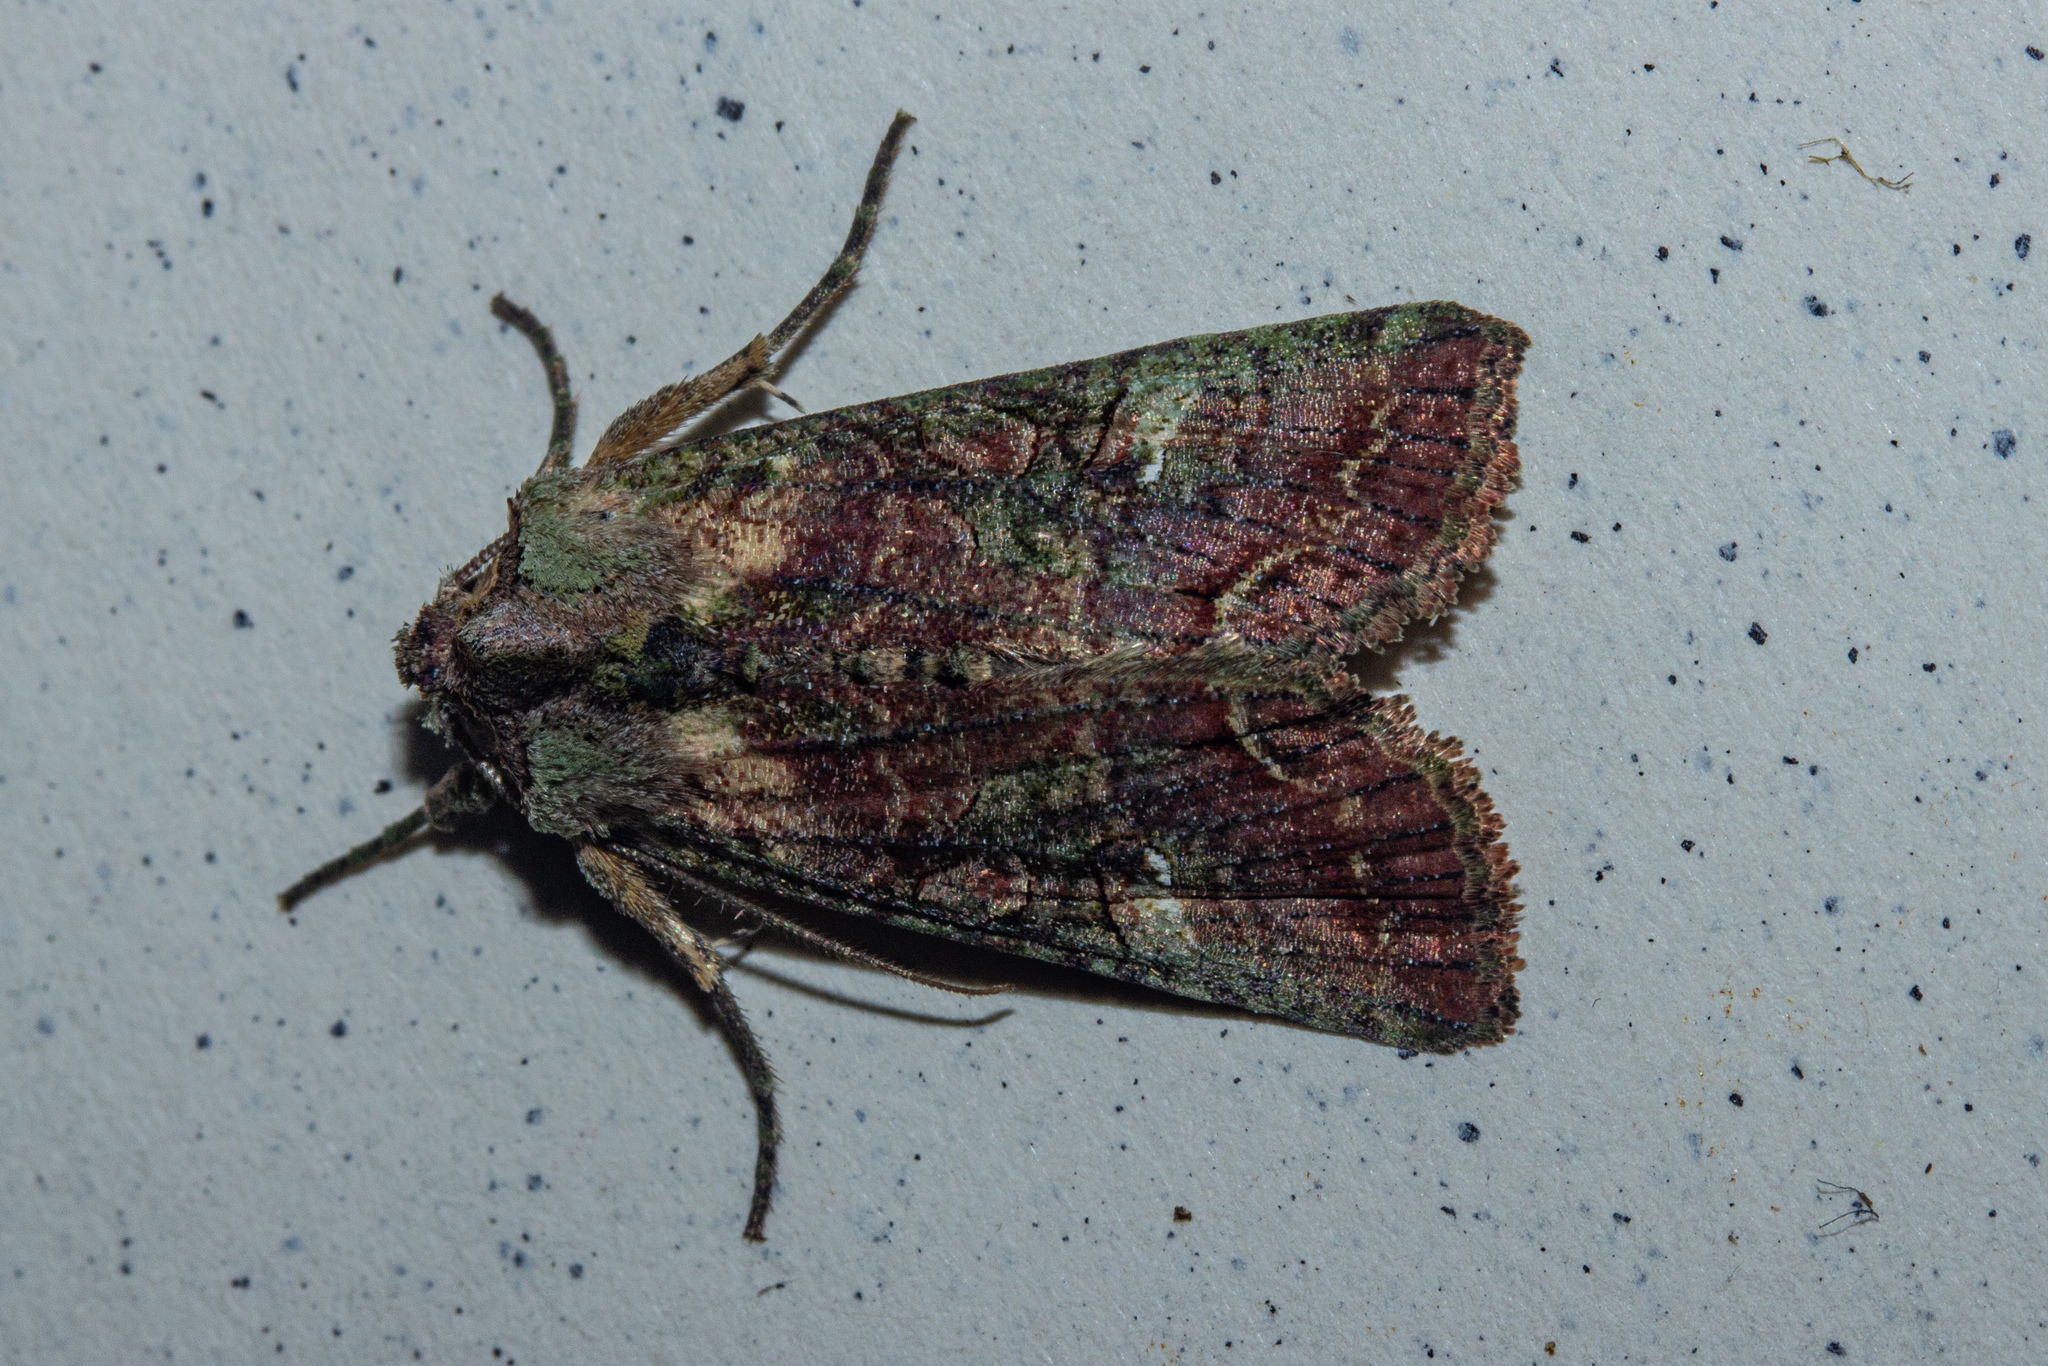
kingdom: Animalia
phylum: Arthropoda
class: Insecta
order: Lepidoptera
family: Noctuidae
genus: Meterana
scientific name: Meterana levis
